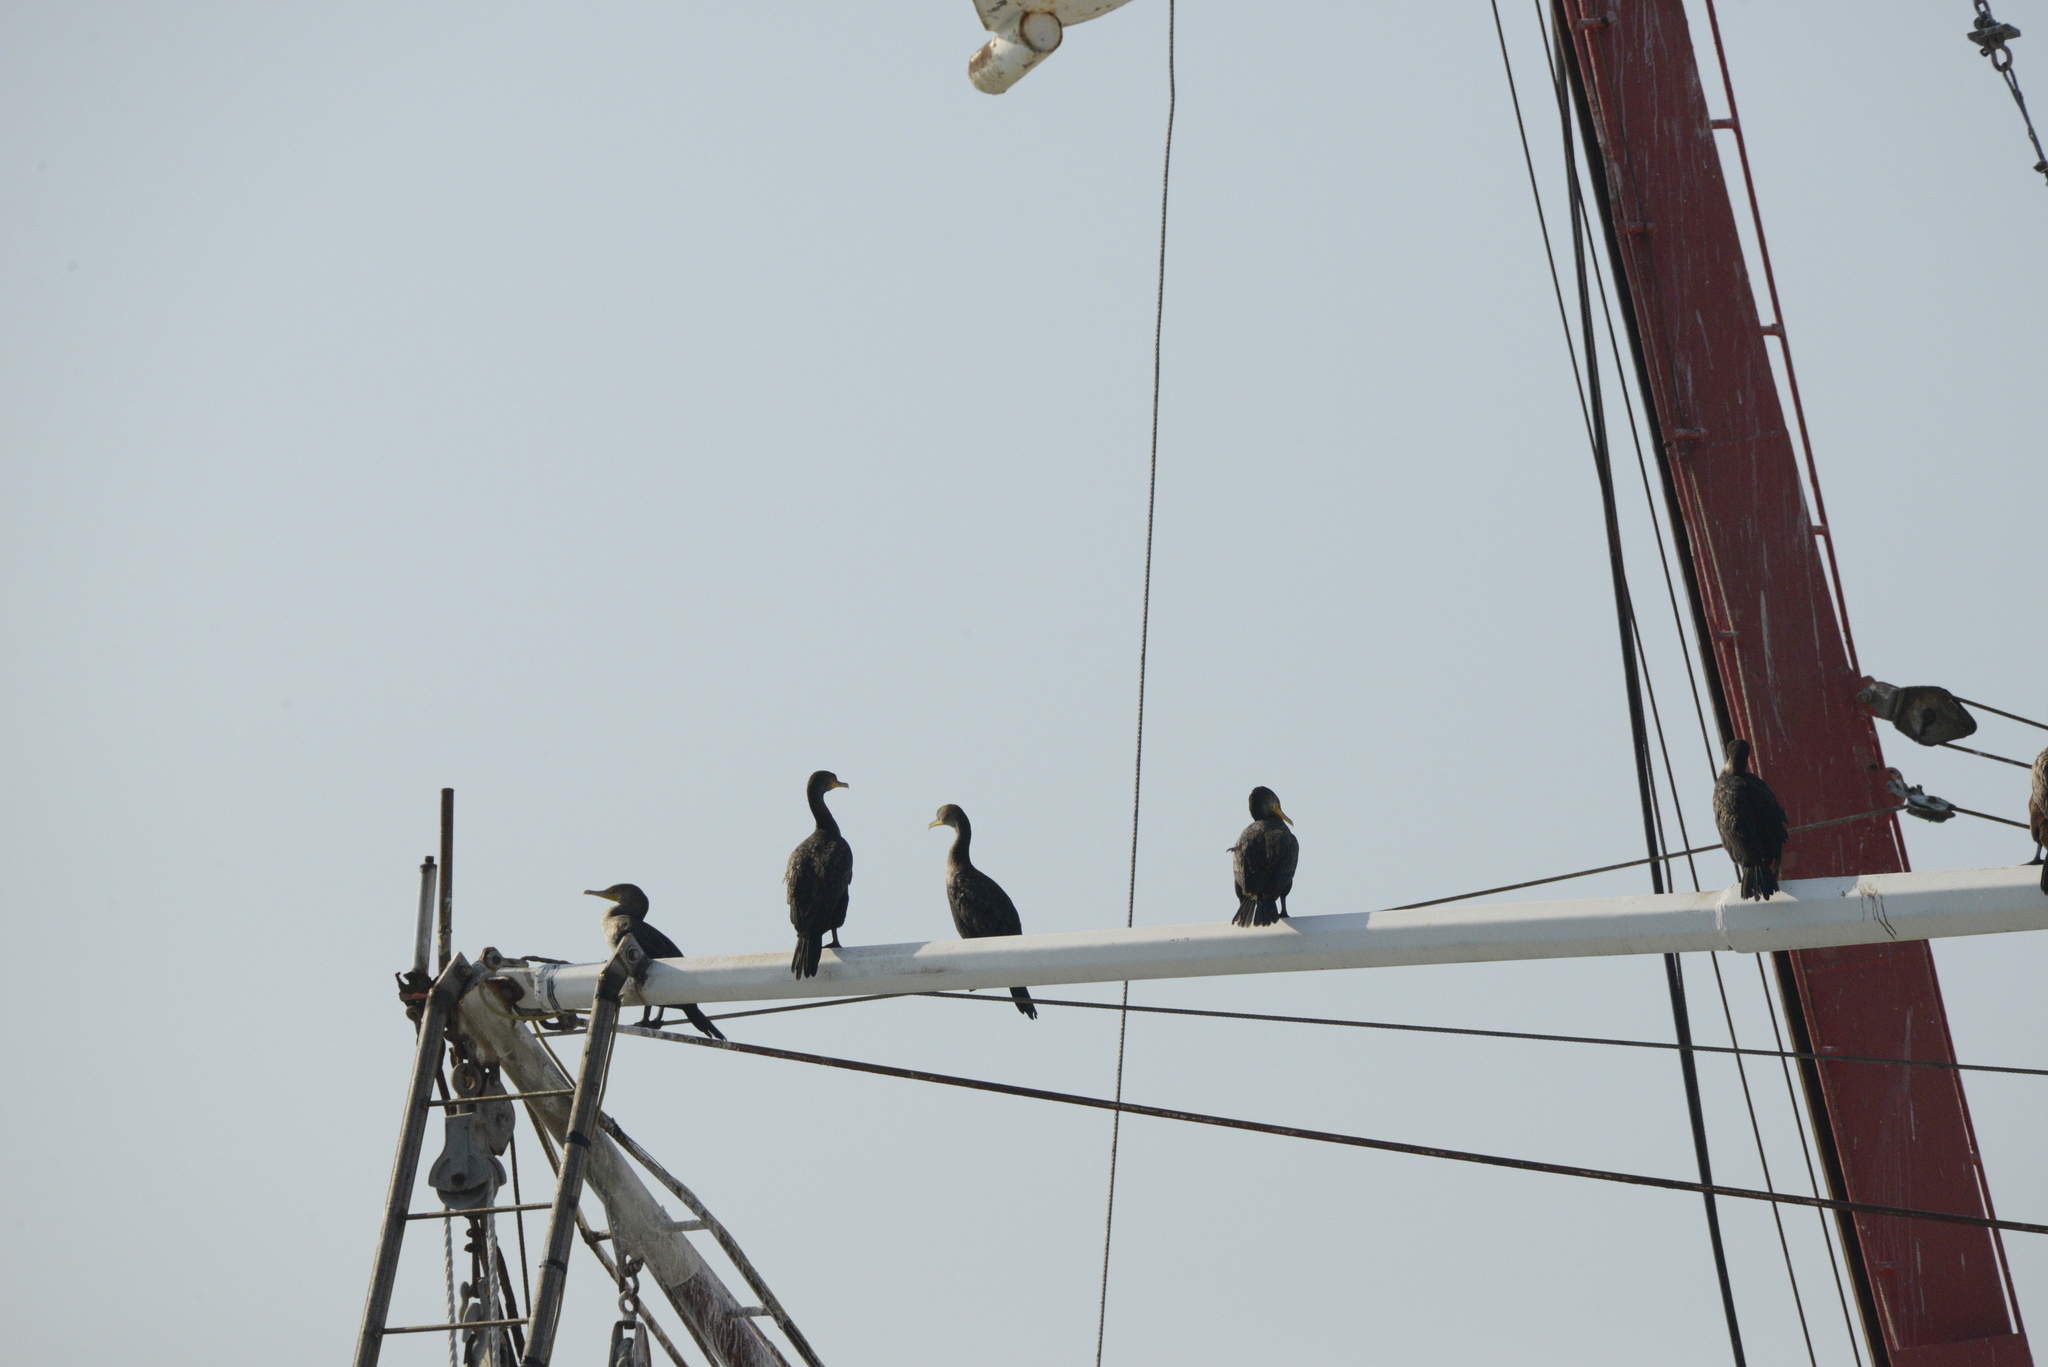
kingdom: Animalia
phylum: Chordata
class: Aves
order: Suliformes
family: Phalacrocoracidae
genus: Phalacrocorax
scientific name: Phalacrocorax auritus
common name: Double-crested cormorant
